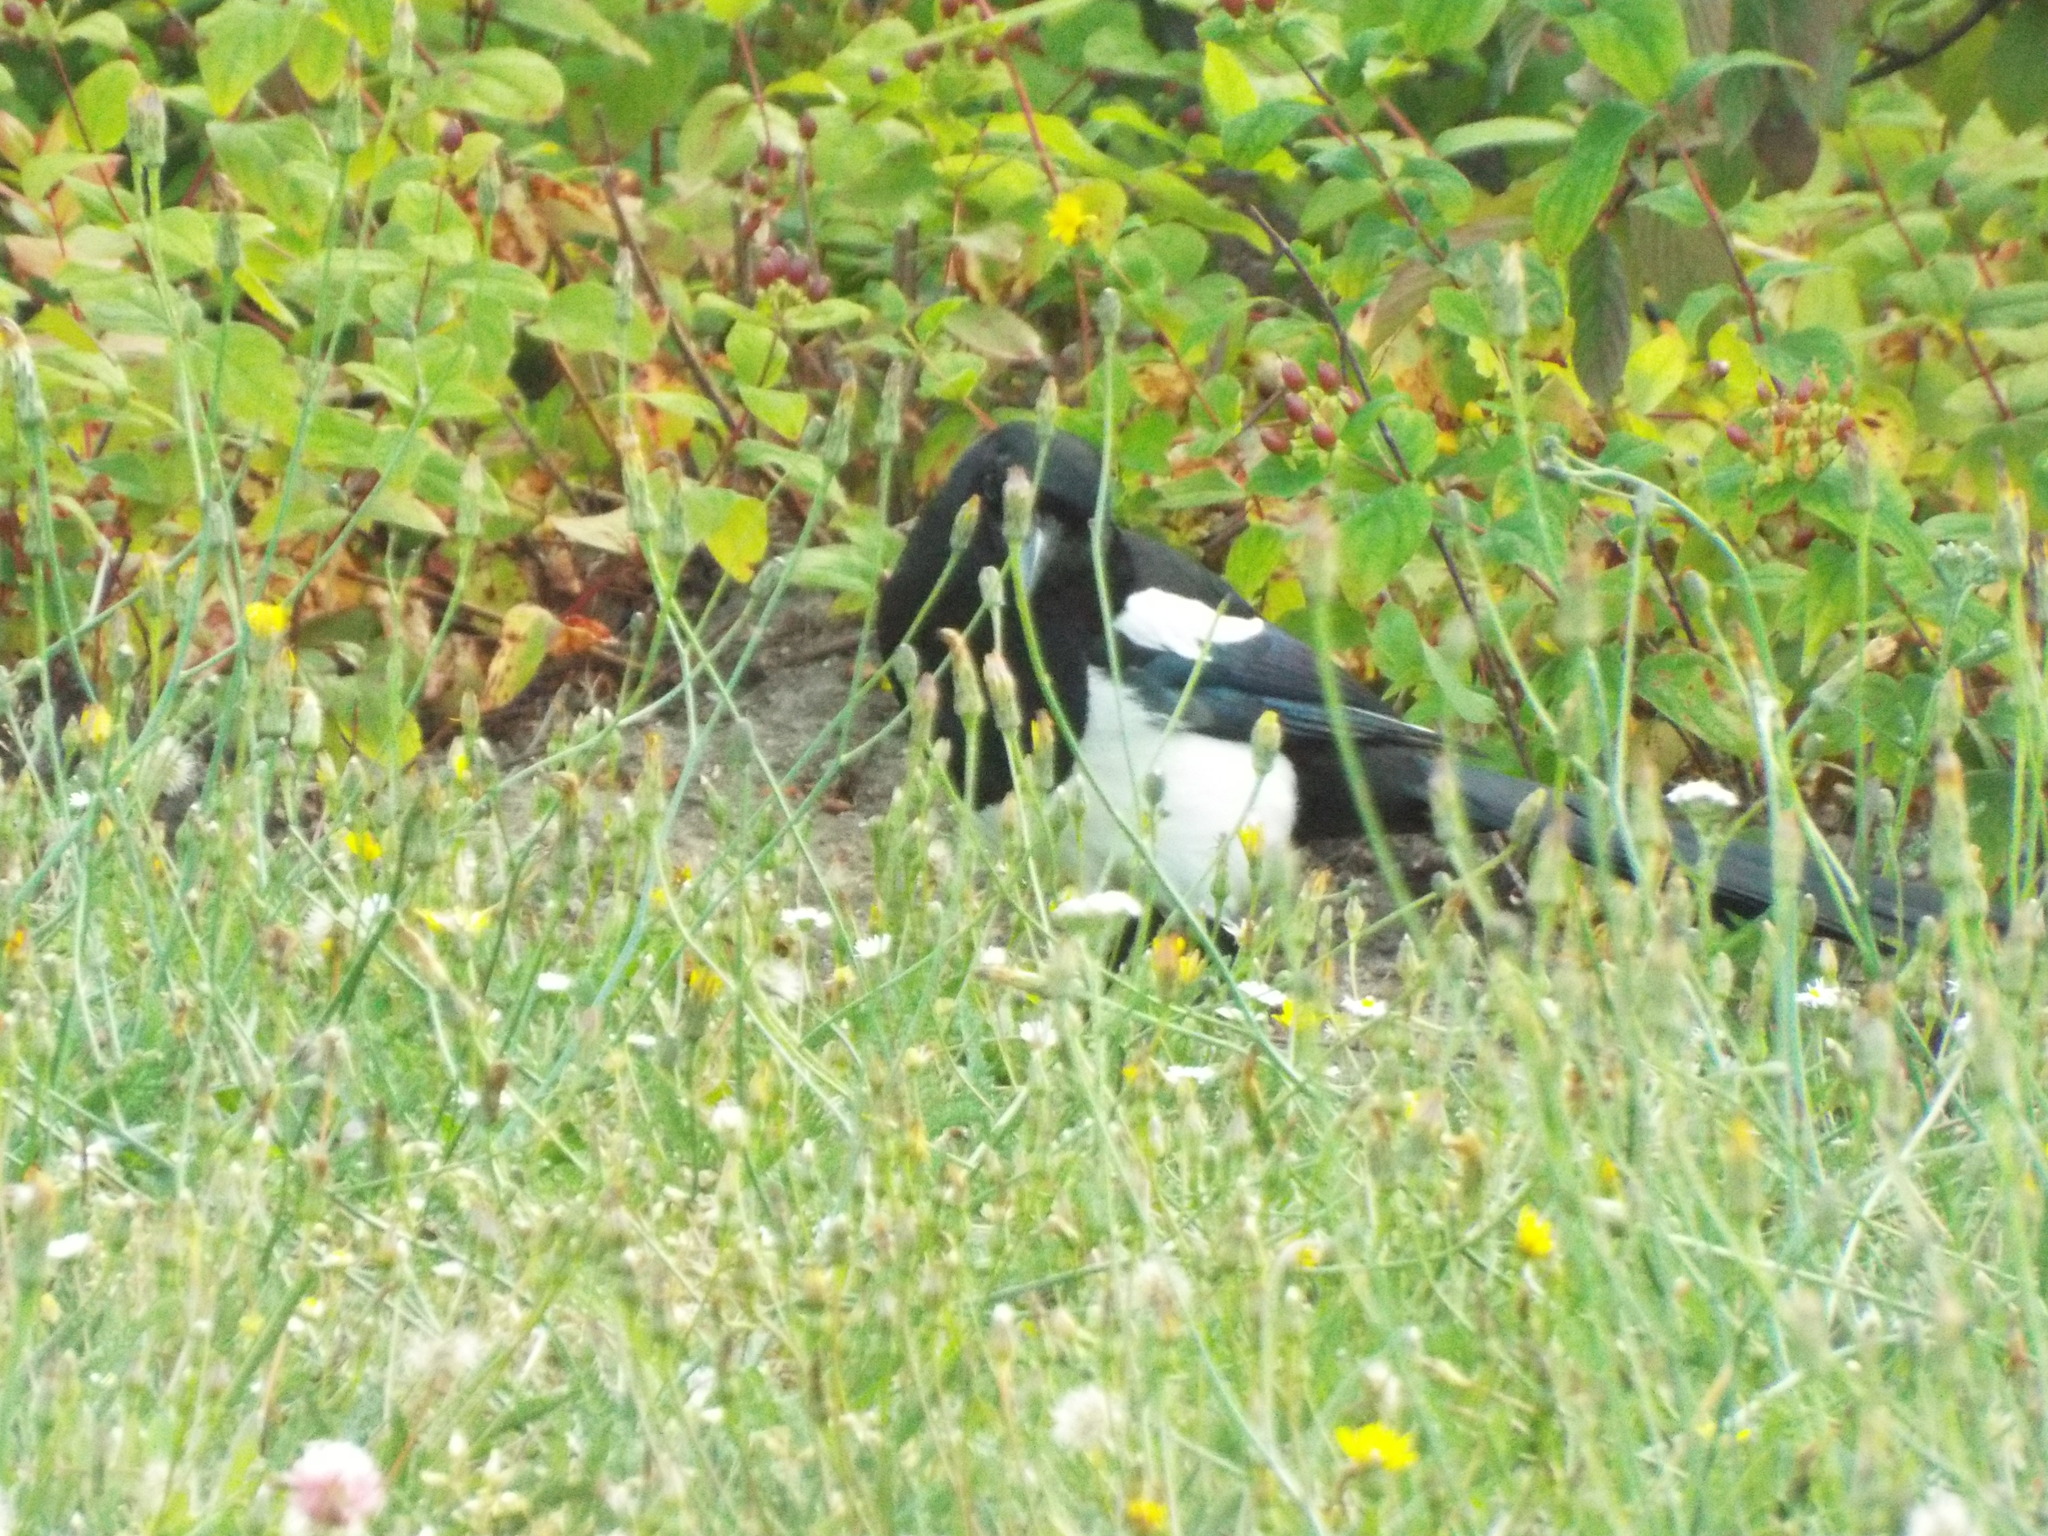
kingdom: Animalia
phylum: Chordata
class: Aves
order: Passeriformes
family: Corvidae
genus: Pica
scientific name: Pica pica
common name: Eurasian magpie
